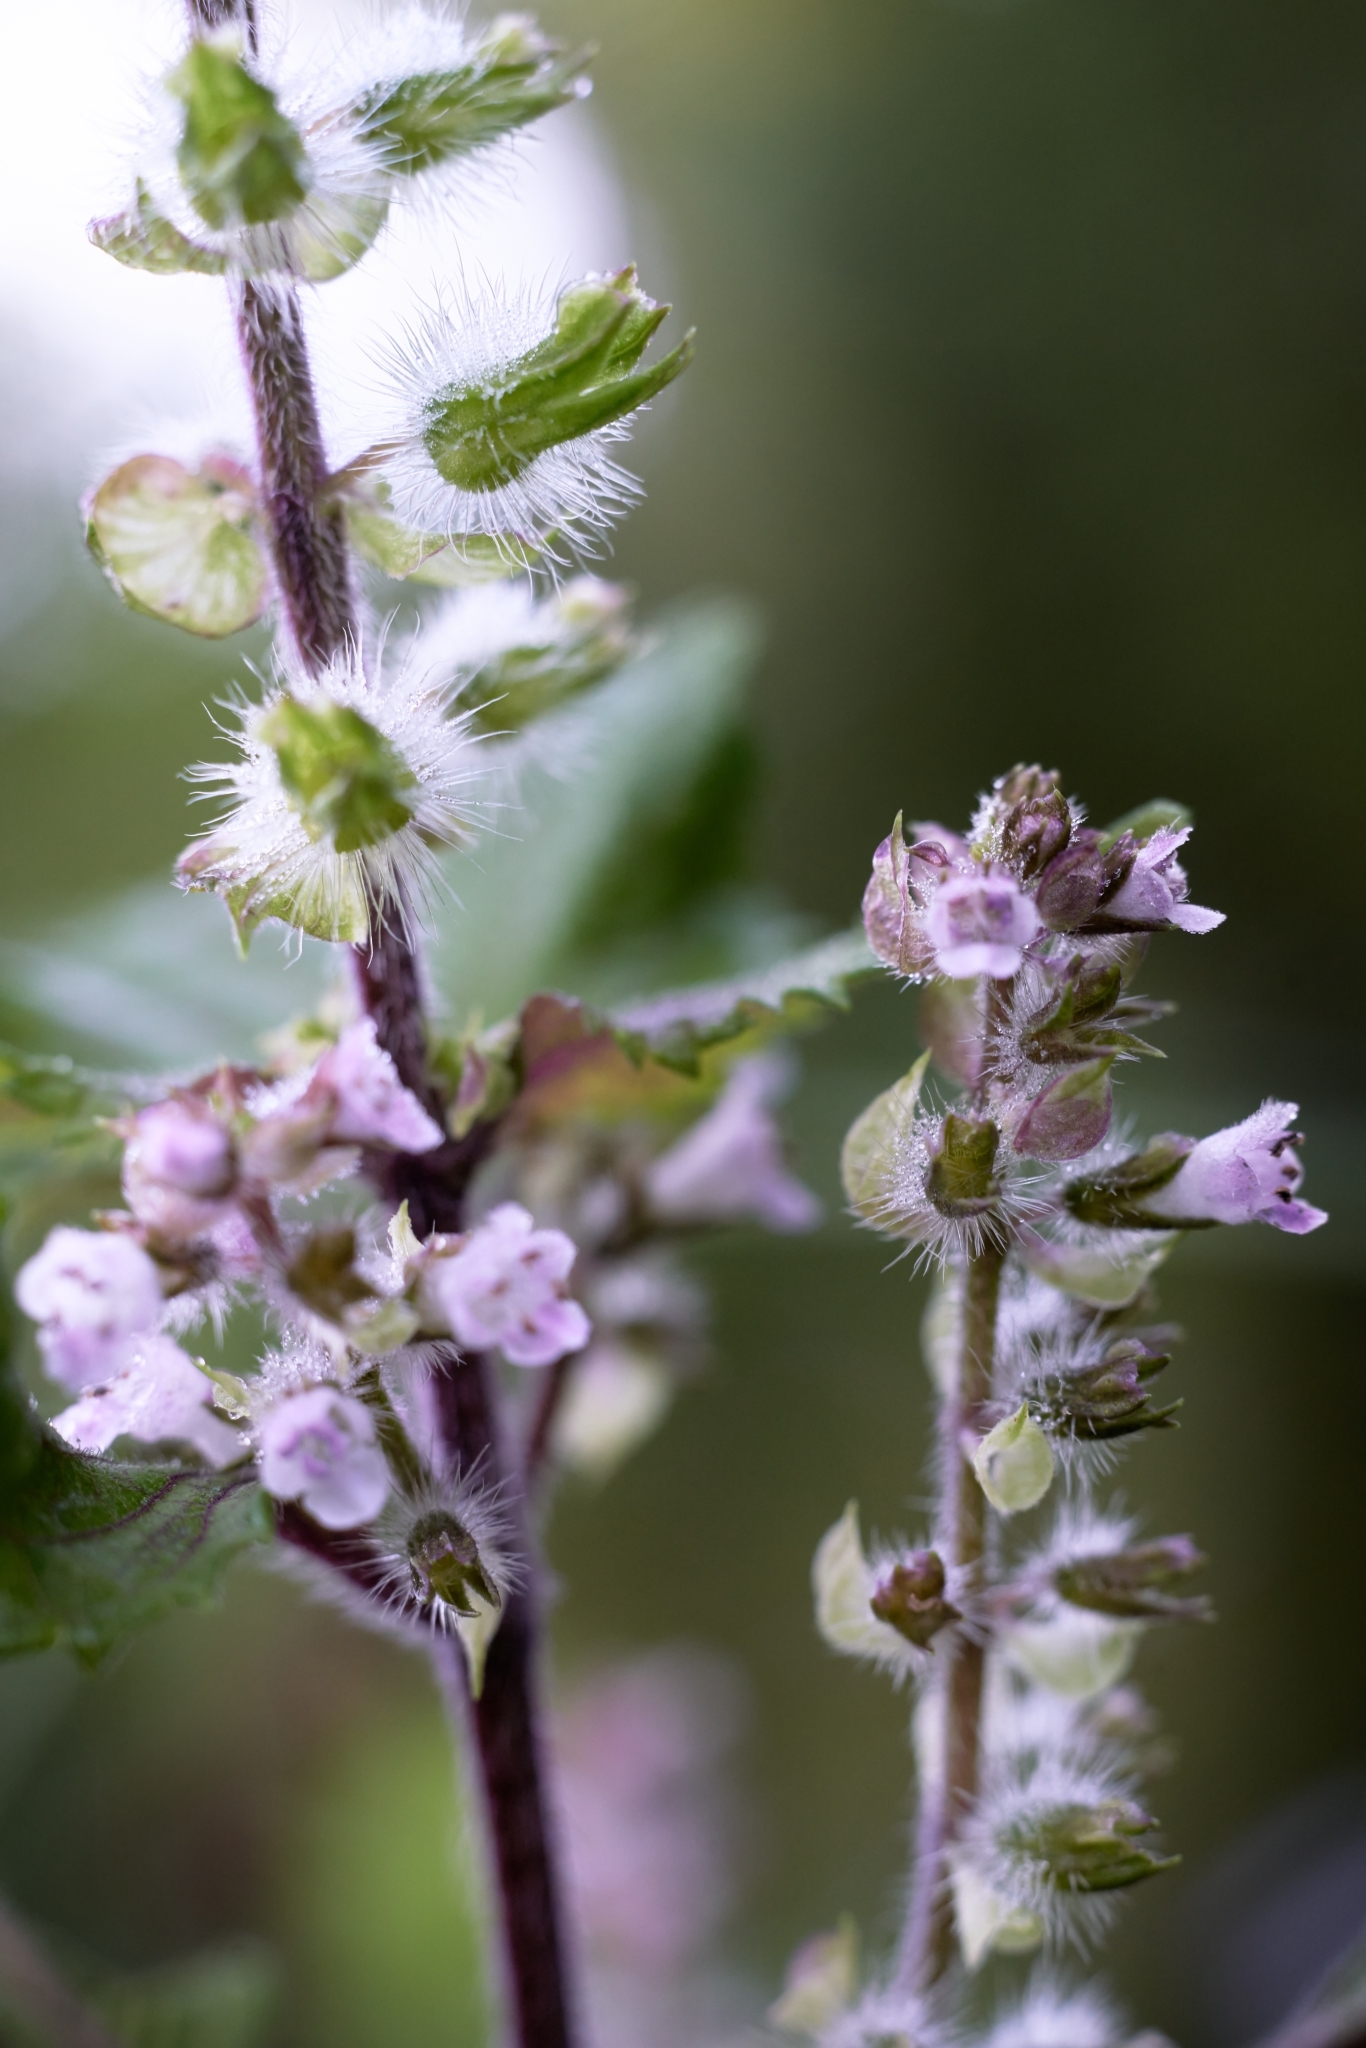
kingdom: Plantae
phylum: Tracheophyta
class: Magnoliopsida
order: Lamiales
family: Lamiaceae
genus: Perilla
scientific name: Perilla frutescens
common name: Perilla
